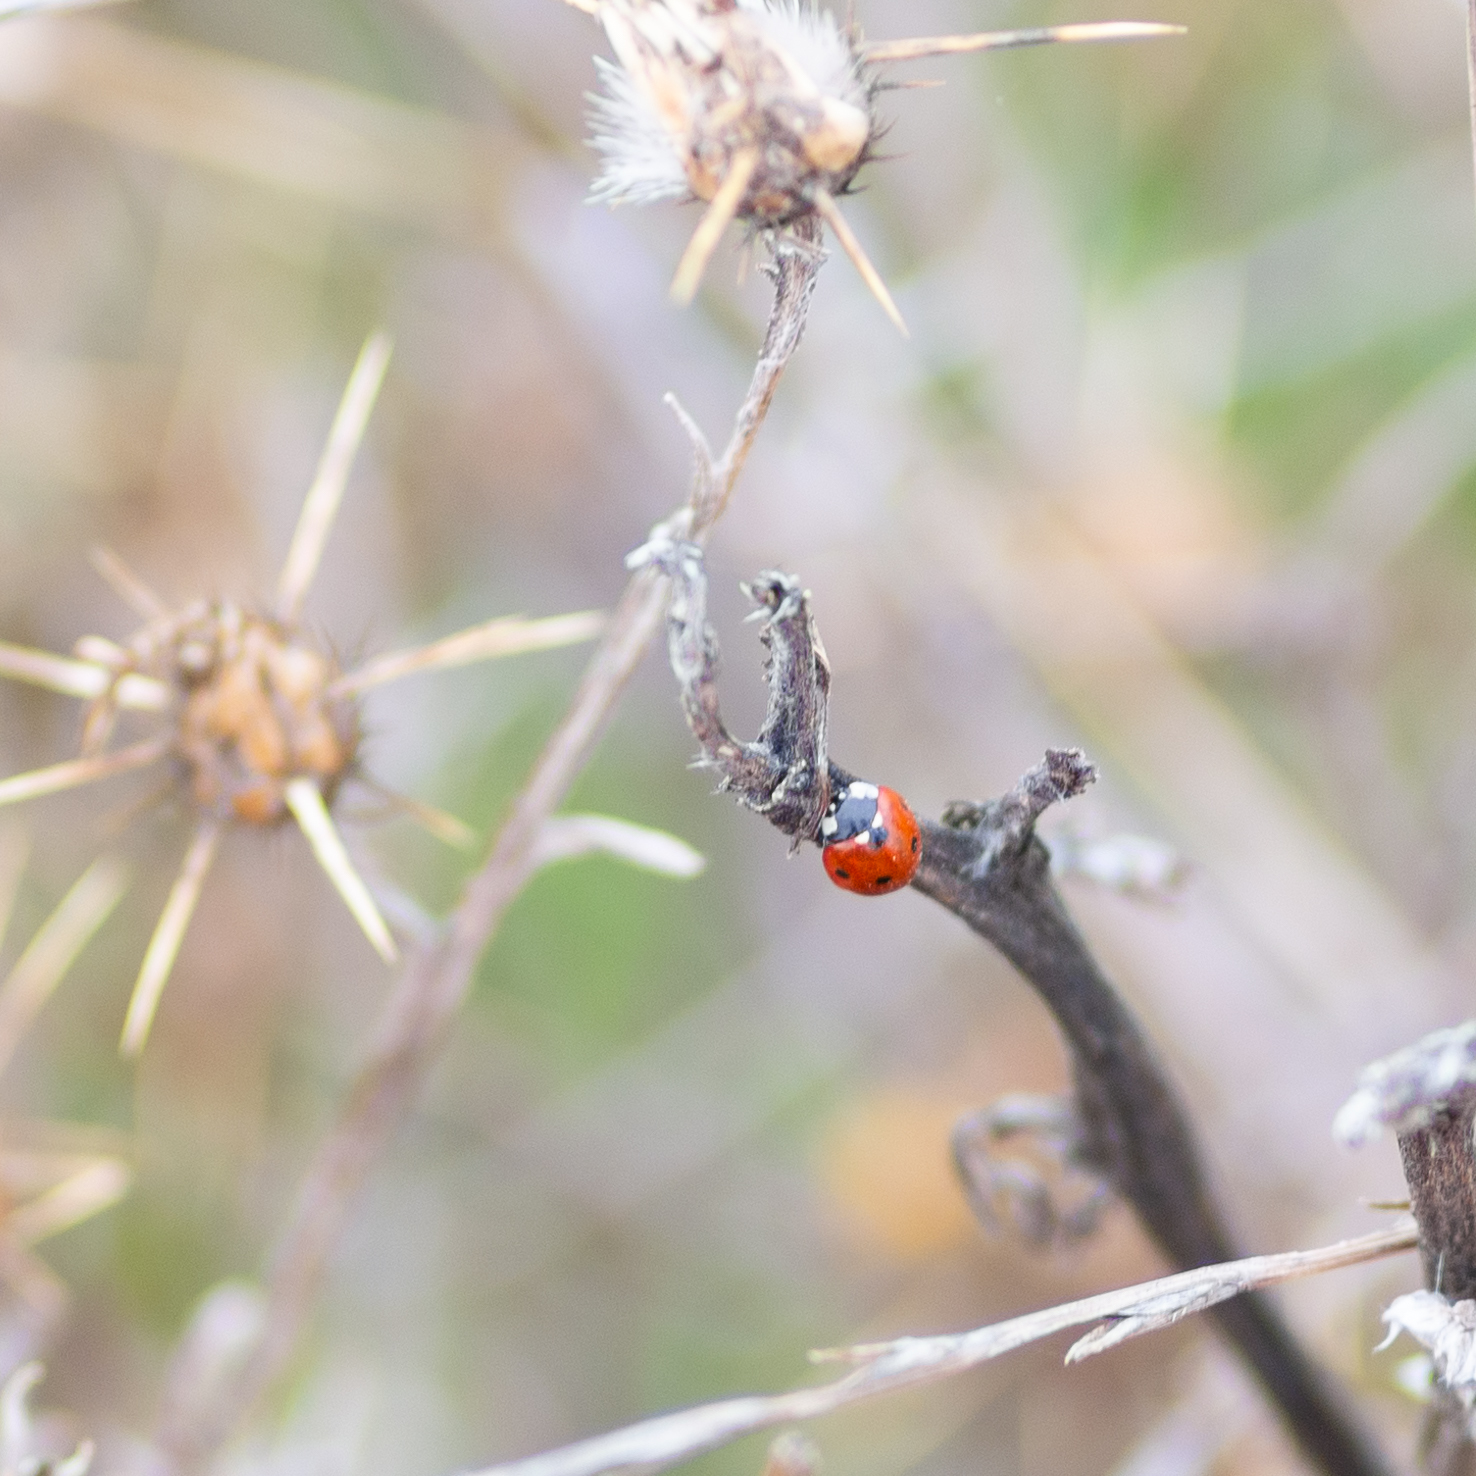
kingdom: Animalia
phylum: Arthropoda
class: Insecta
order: Coleoptera
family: Coccinellidae
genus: Coccinella
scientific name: Coccinella septempunctata
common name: Sevenspotted lady beetle
